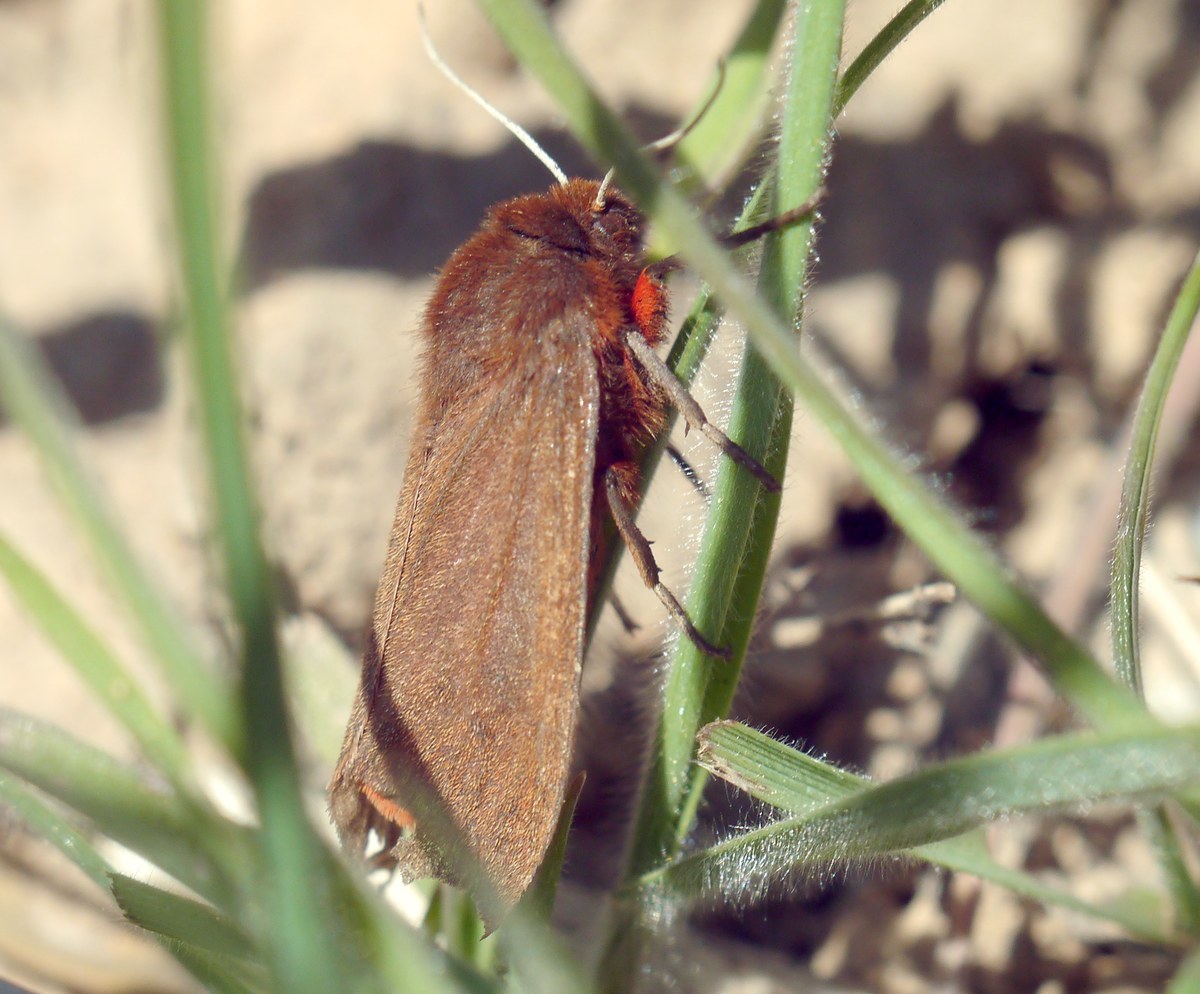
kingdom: Animalia
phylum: Arthropoda
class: Insecta
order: Lepidoptera
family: Erebidae
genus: Phragmatobia
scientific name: Phragmatobia fuliginosa
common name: Ruby tiger
